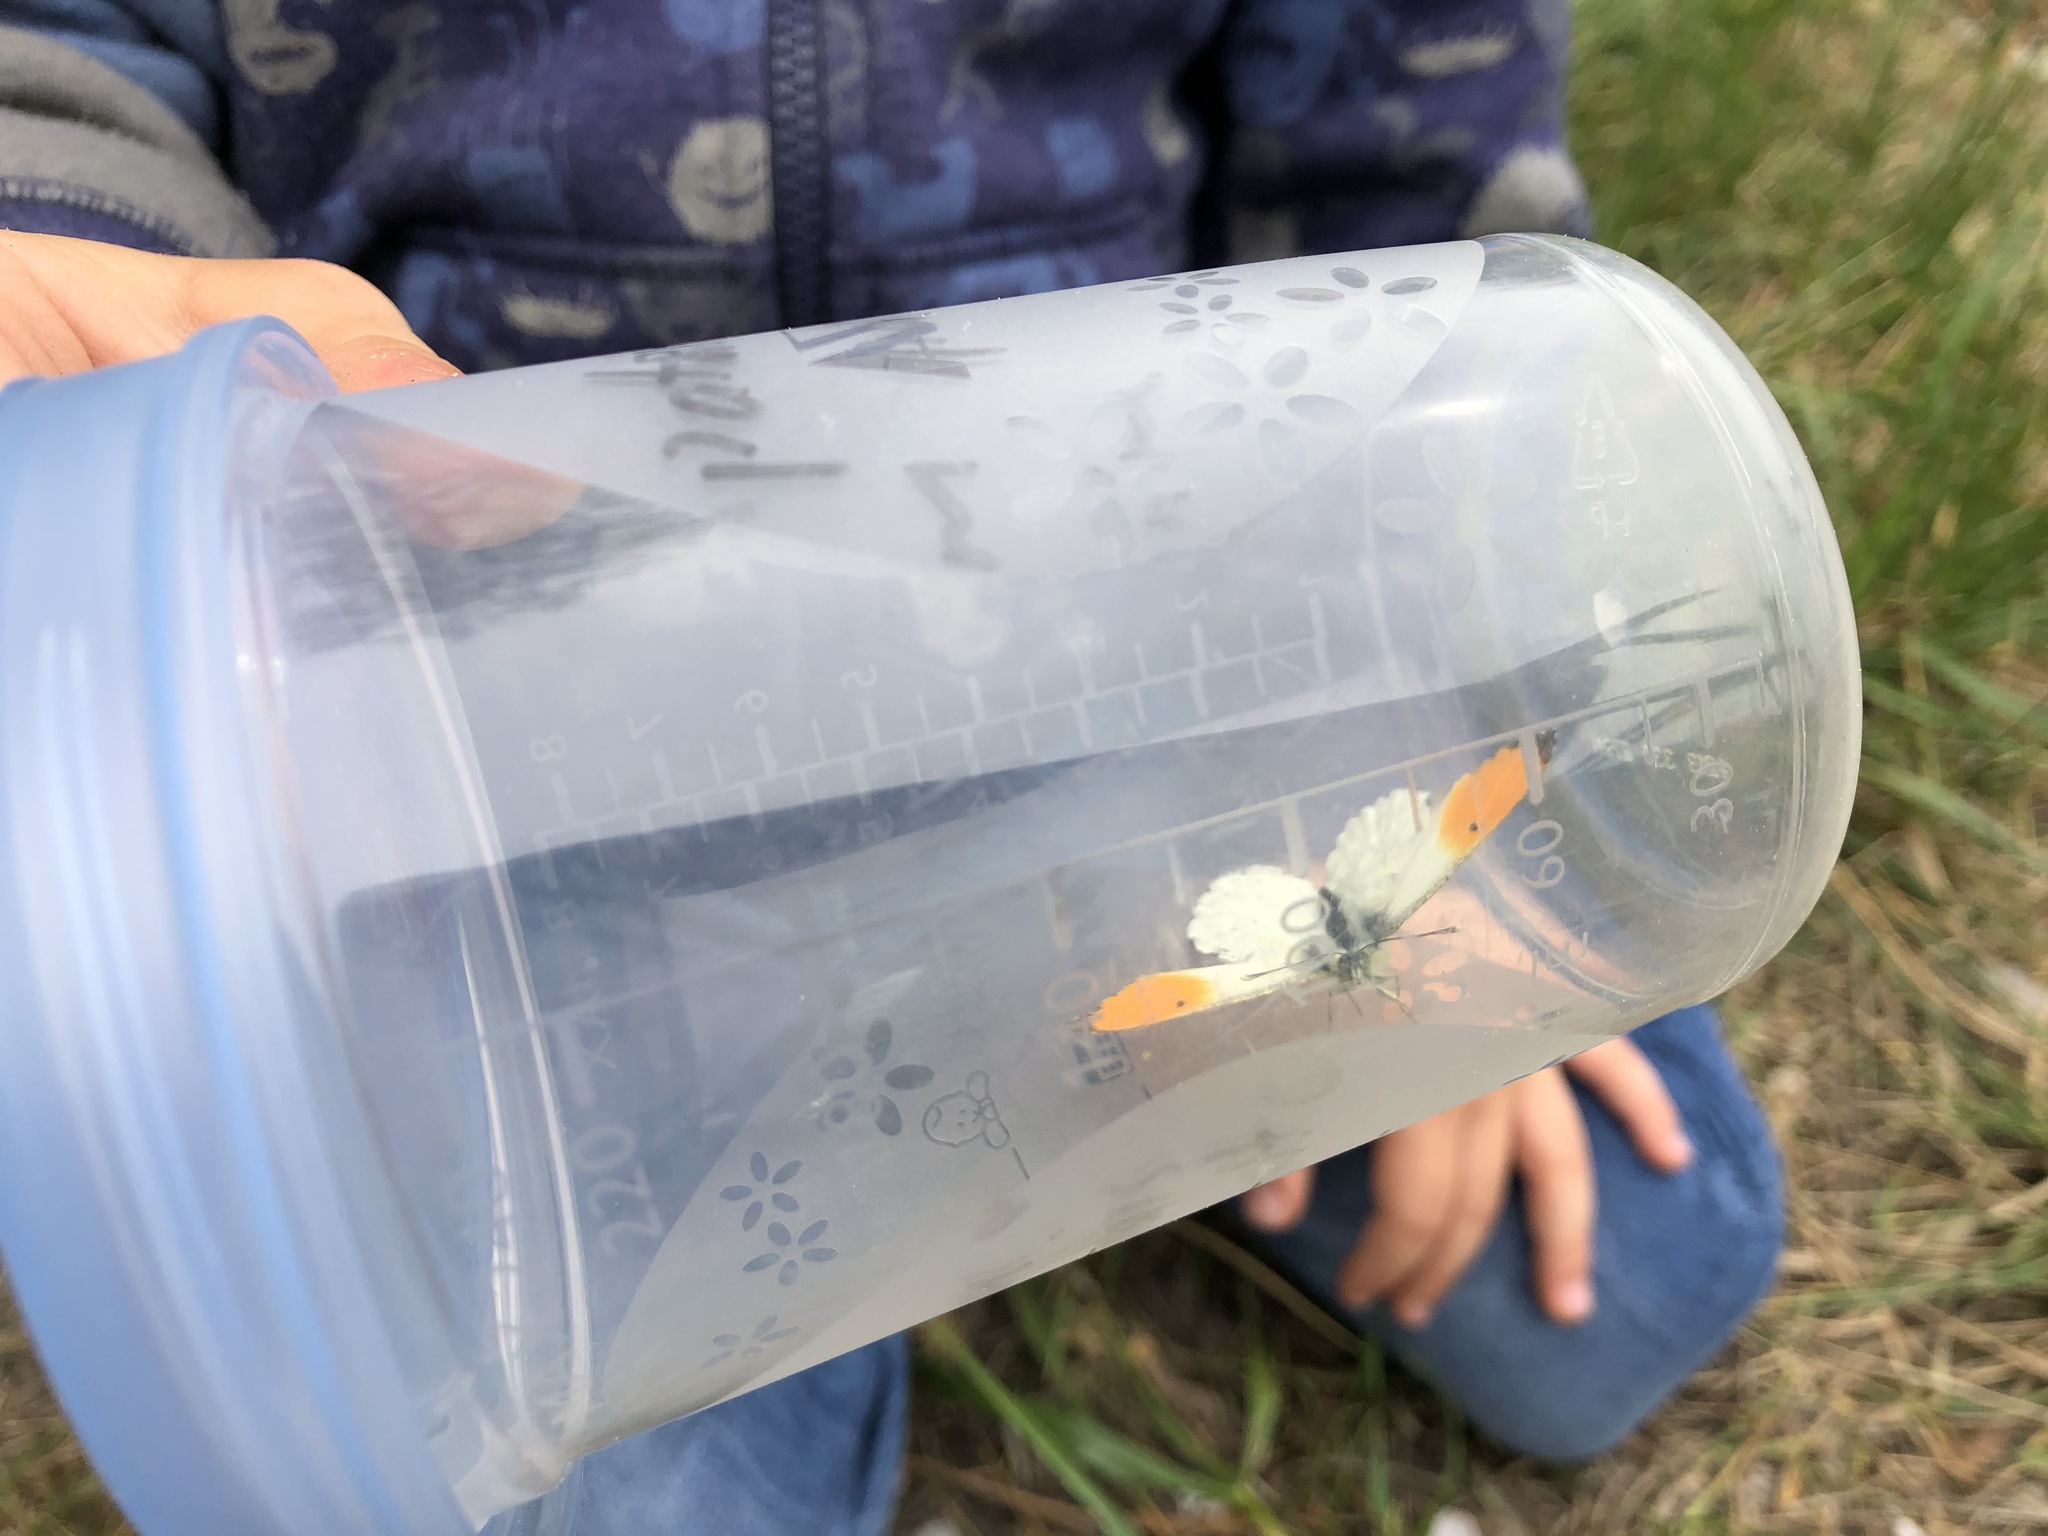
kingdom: Animalia
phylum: Arthropoda
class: Insecta
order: Lepidoptera
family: Pieridae
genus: Anthocharis
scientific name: Anthocharis cardamines
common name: Orange-tip
